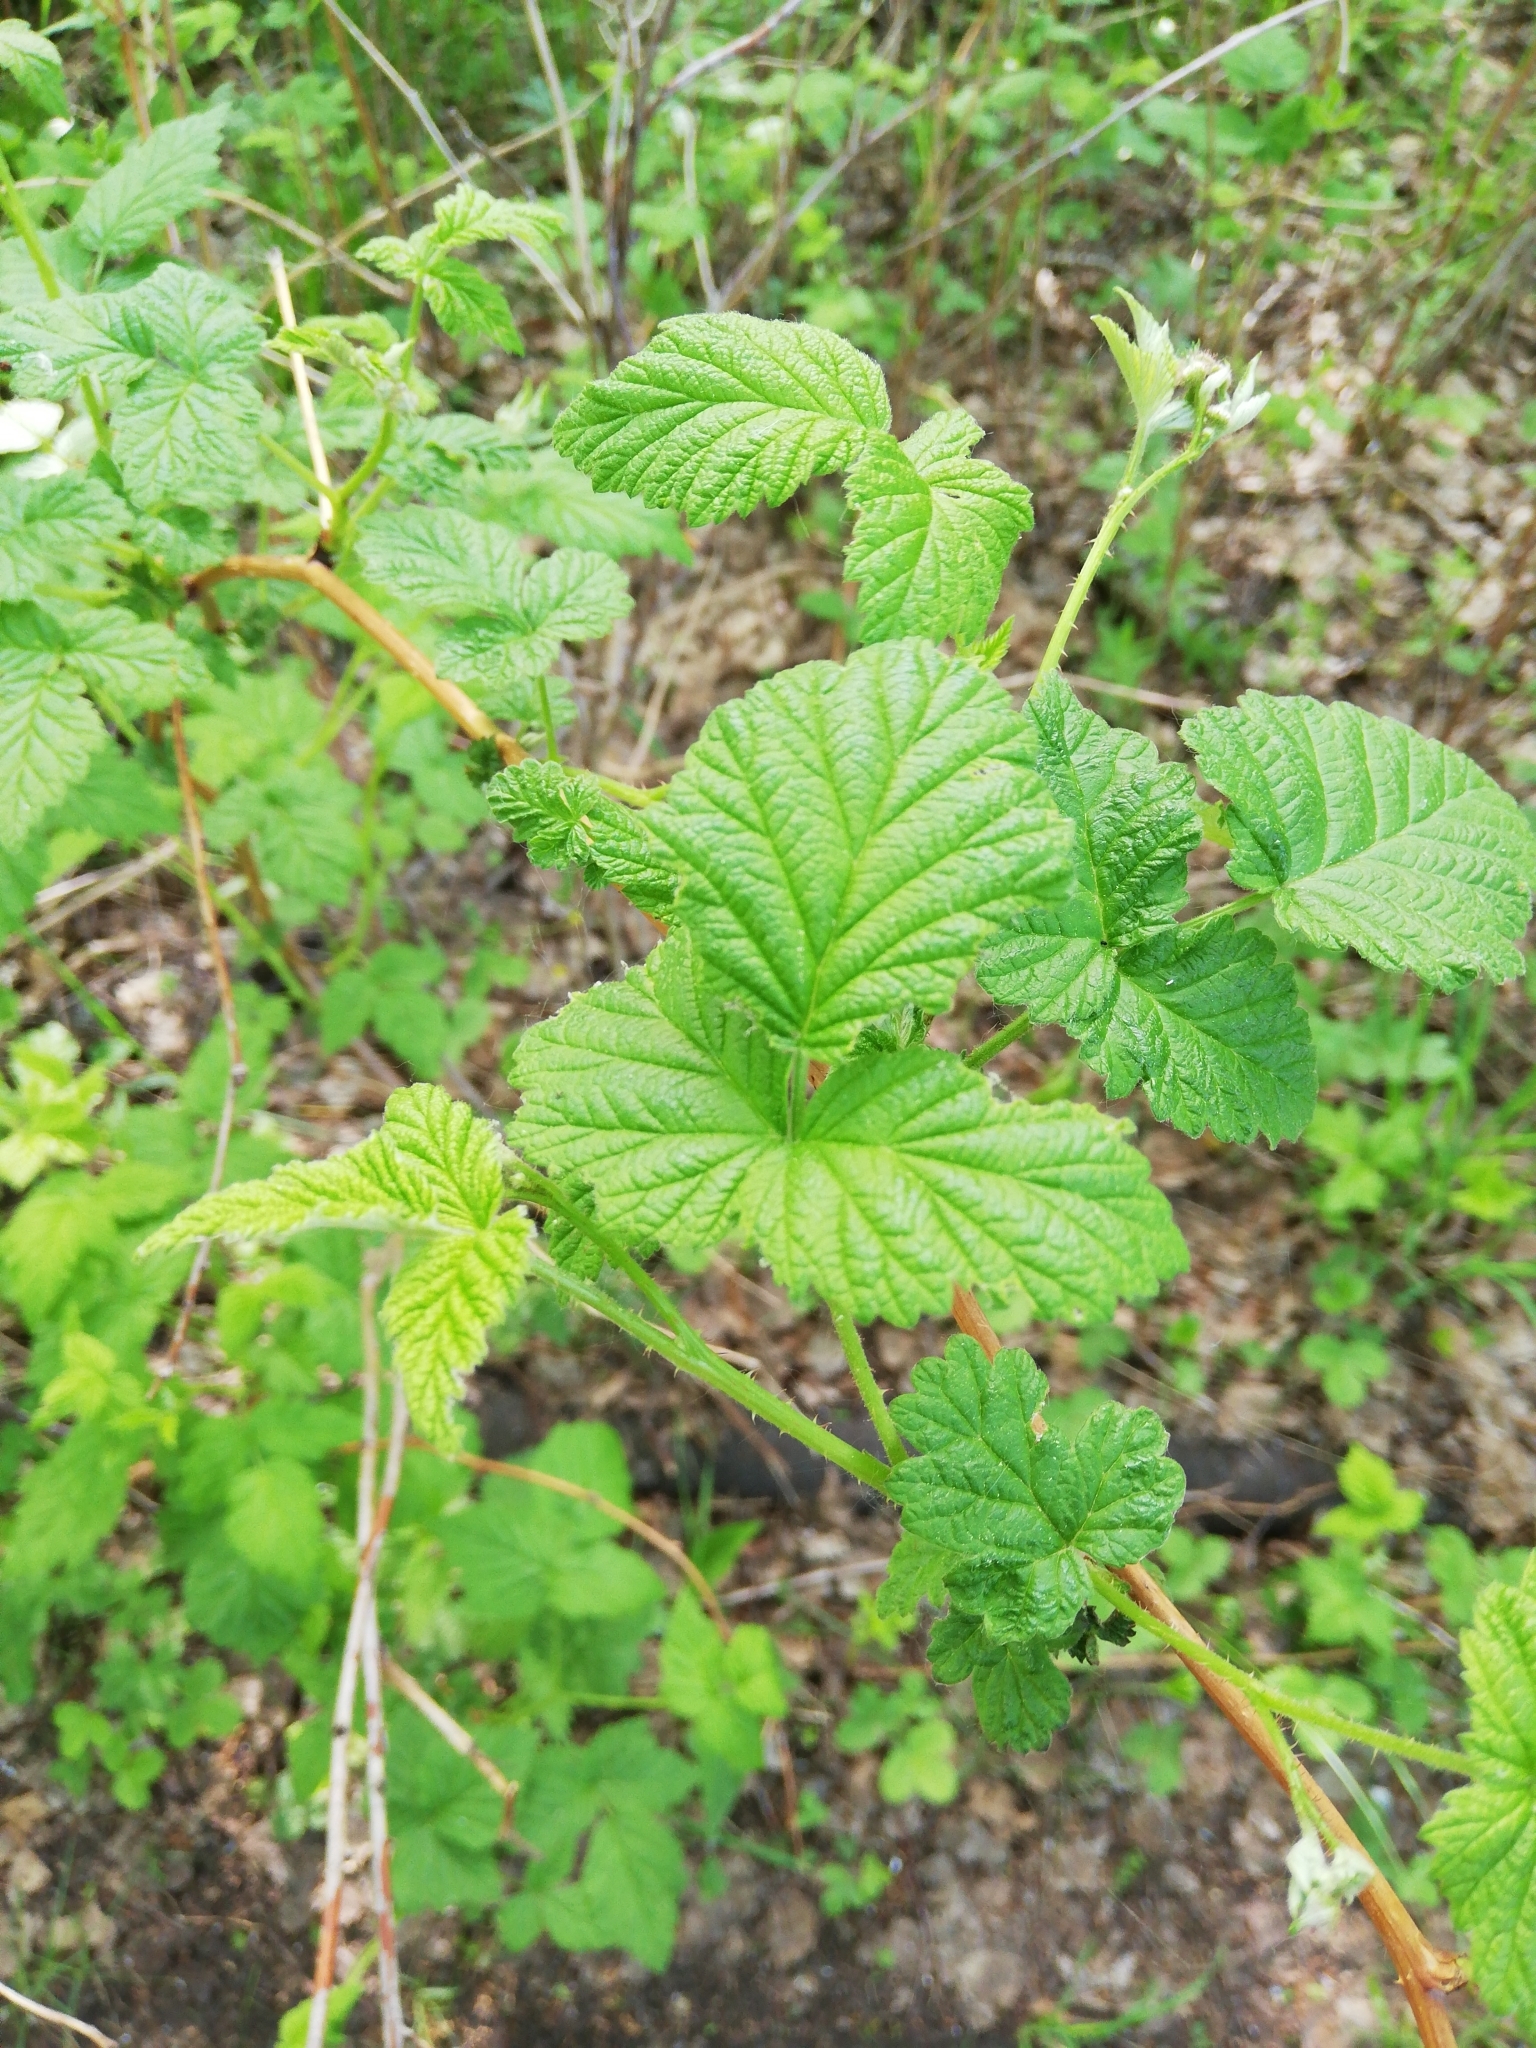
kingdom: Plantae
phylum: Tracheophyta
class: Magnoliopsida
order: Rosales
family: Rosaceae
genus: Rubus
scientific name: Rubus idaeus
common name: Raspberry
